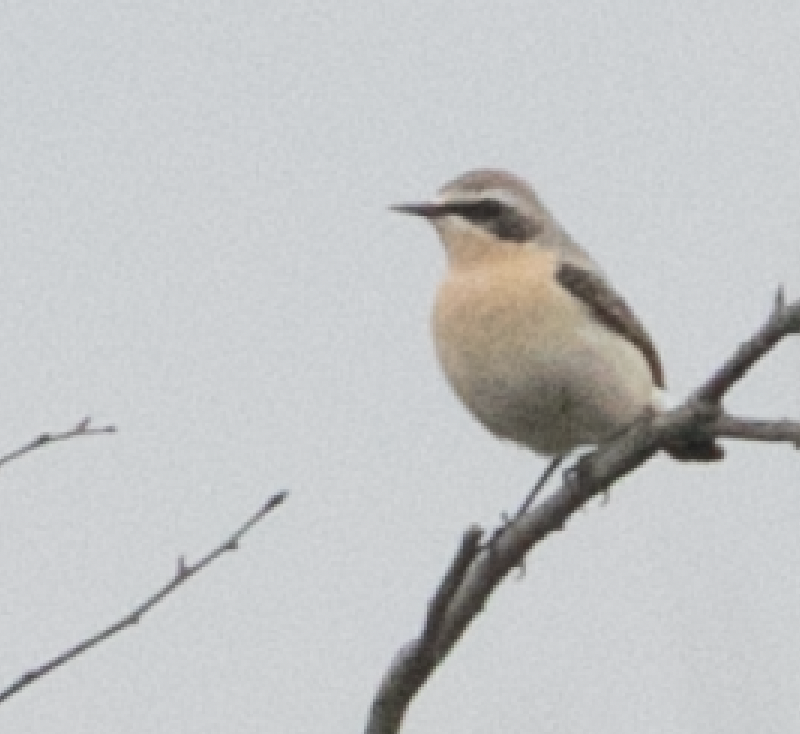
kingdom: Animalia
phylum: Chordata
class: Aves
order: Passeriformes
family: Muscicapidae
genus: Oenanthe
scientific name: Oenanthe oenanthe
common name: Northern wheatear
